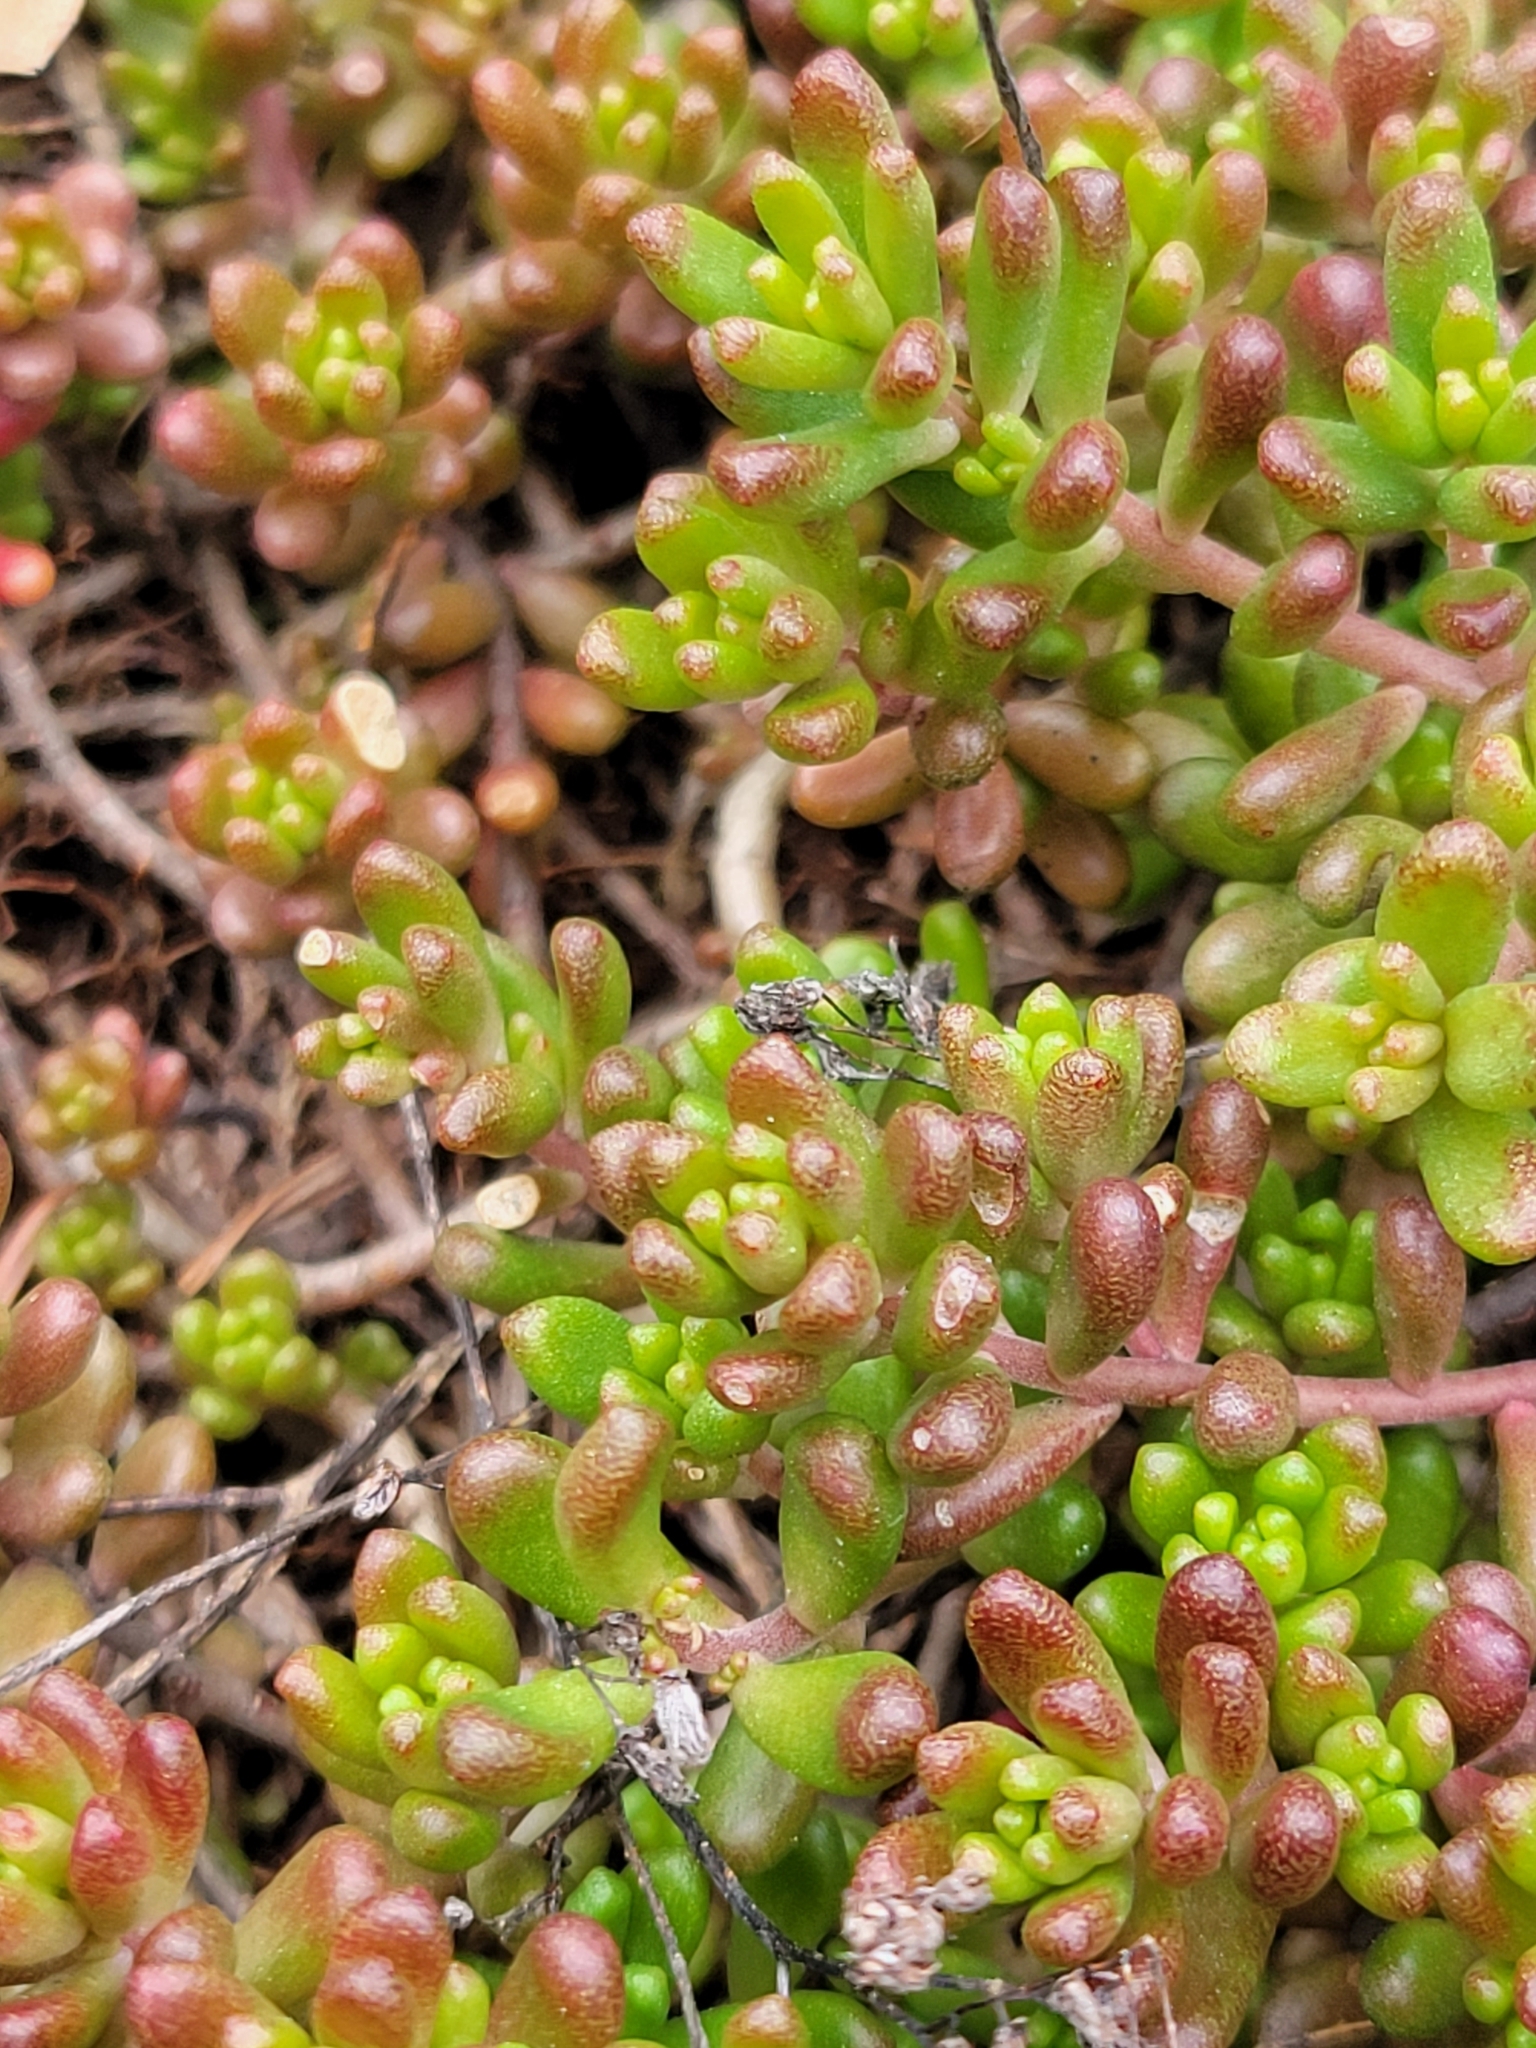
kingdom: Plantae
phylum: Tracheophyta
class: Magnoliopsida
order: Saxifragales
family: Crassulaceae
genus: Sedum
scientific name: Sedum album
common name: White stonecrop
